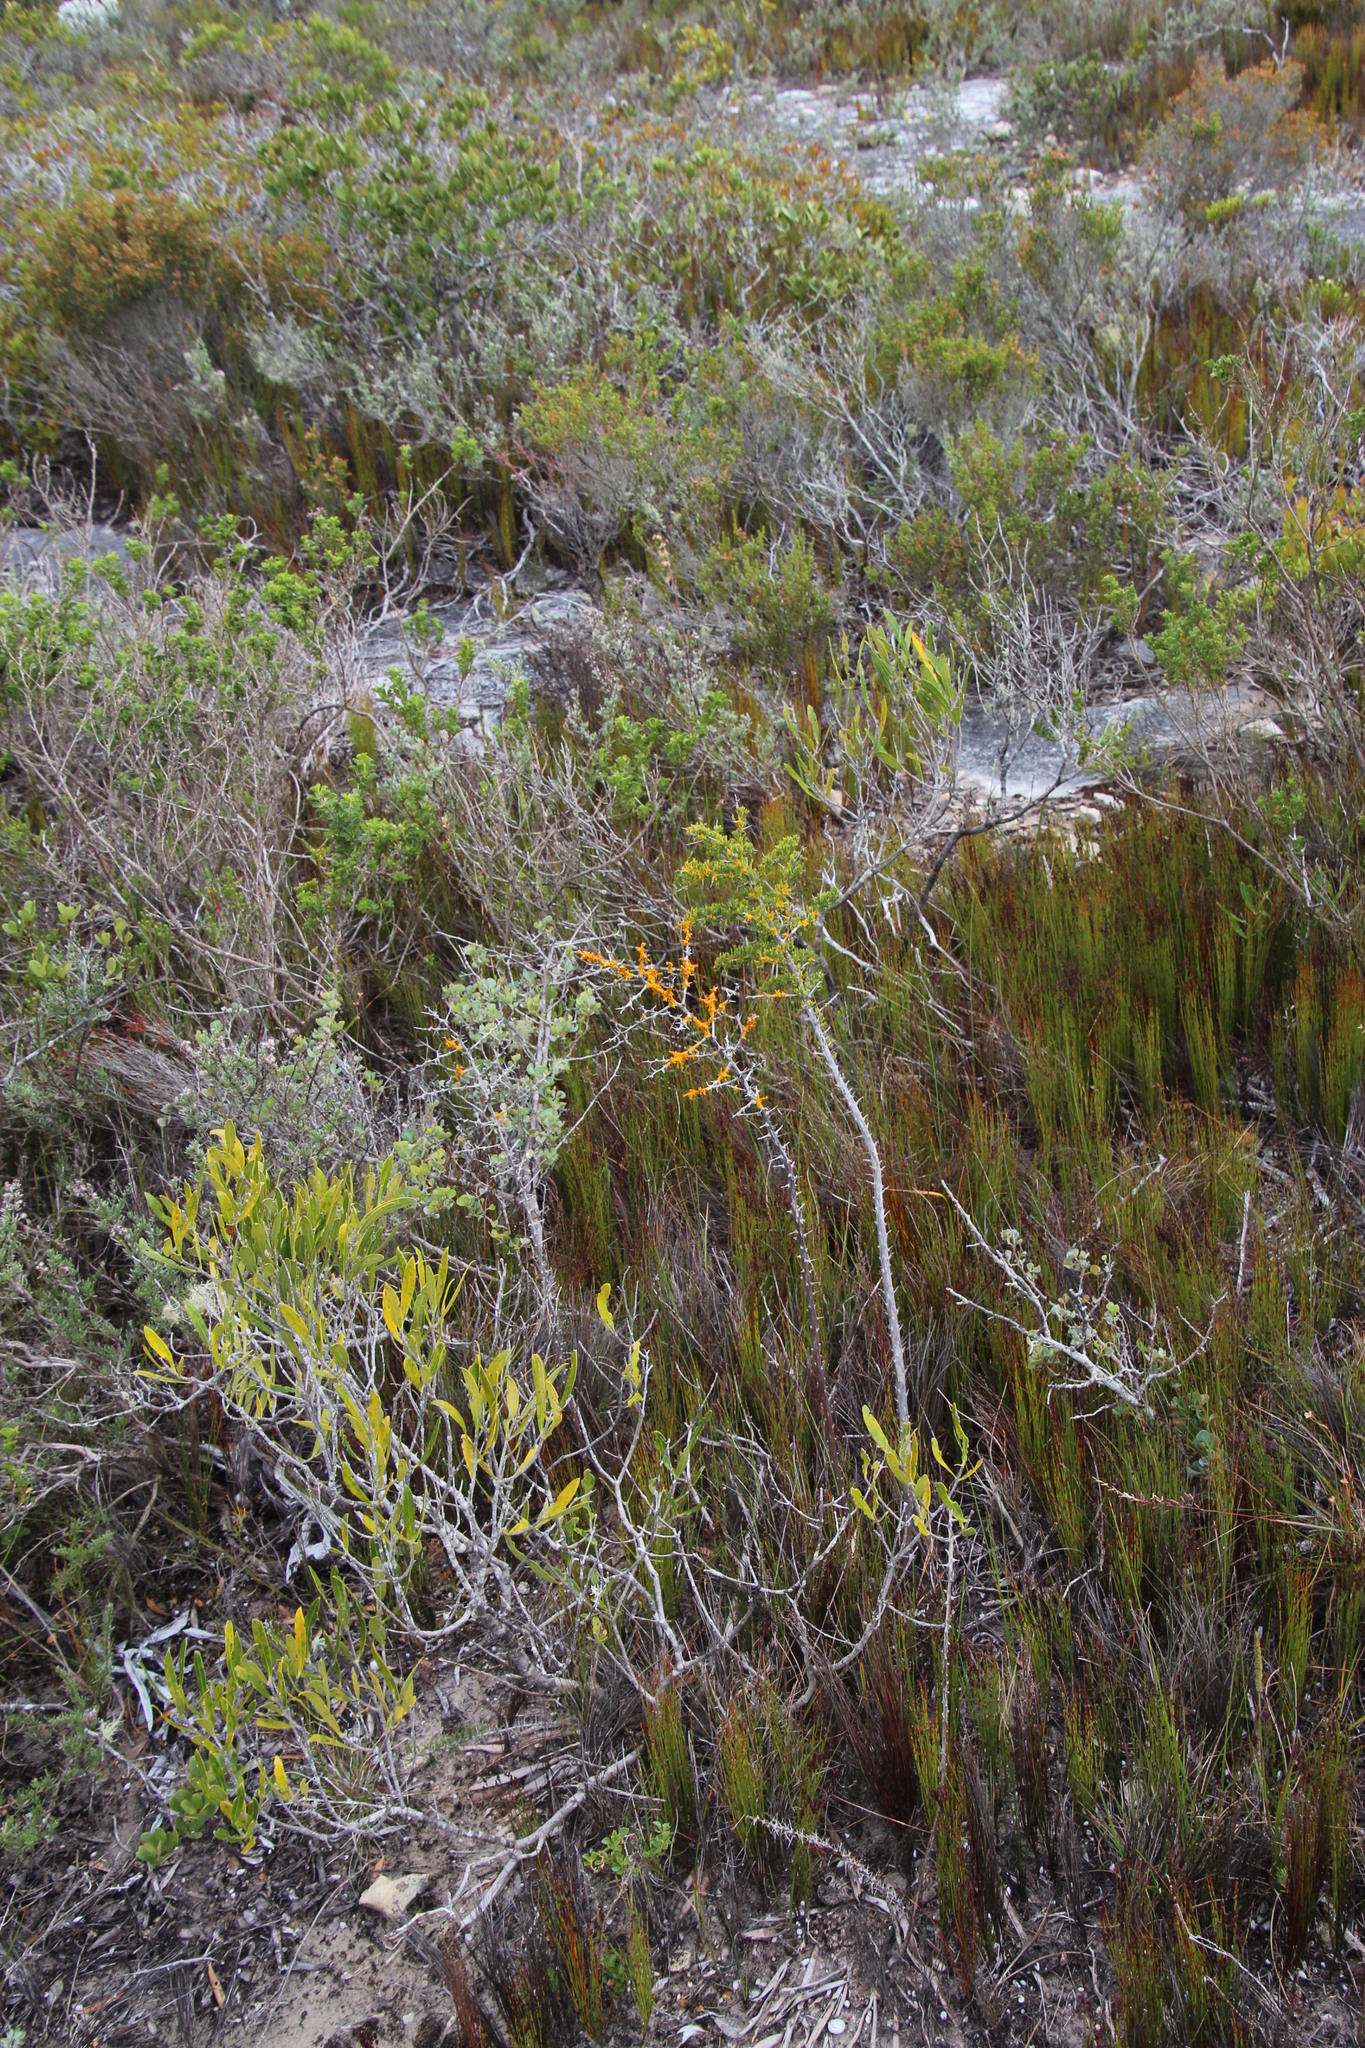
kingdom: Plantae
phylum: Tracheophyta
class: Liliopsida
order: Asparagales
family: Asparagaceae
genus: Asparagus
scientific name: Asparagus mariae
